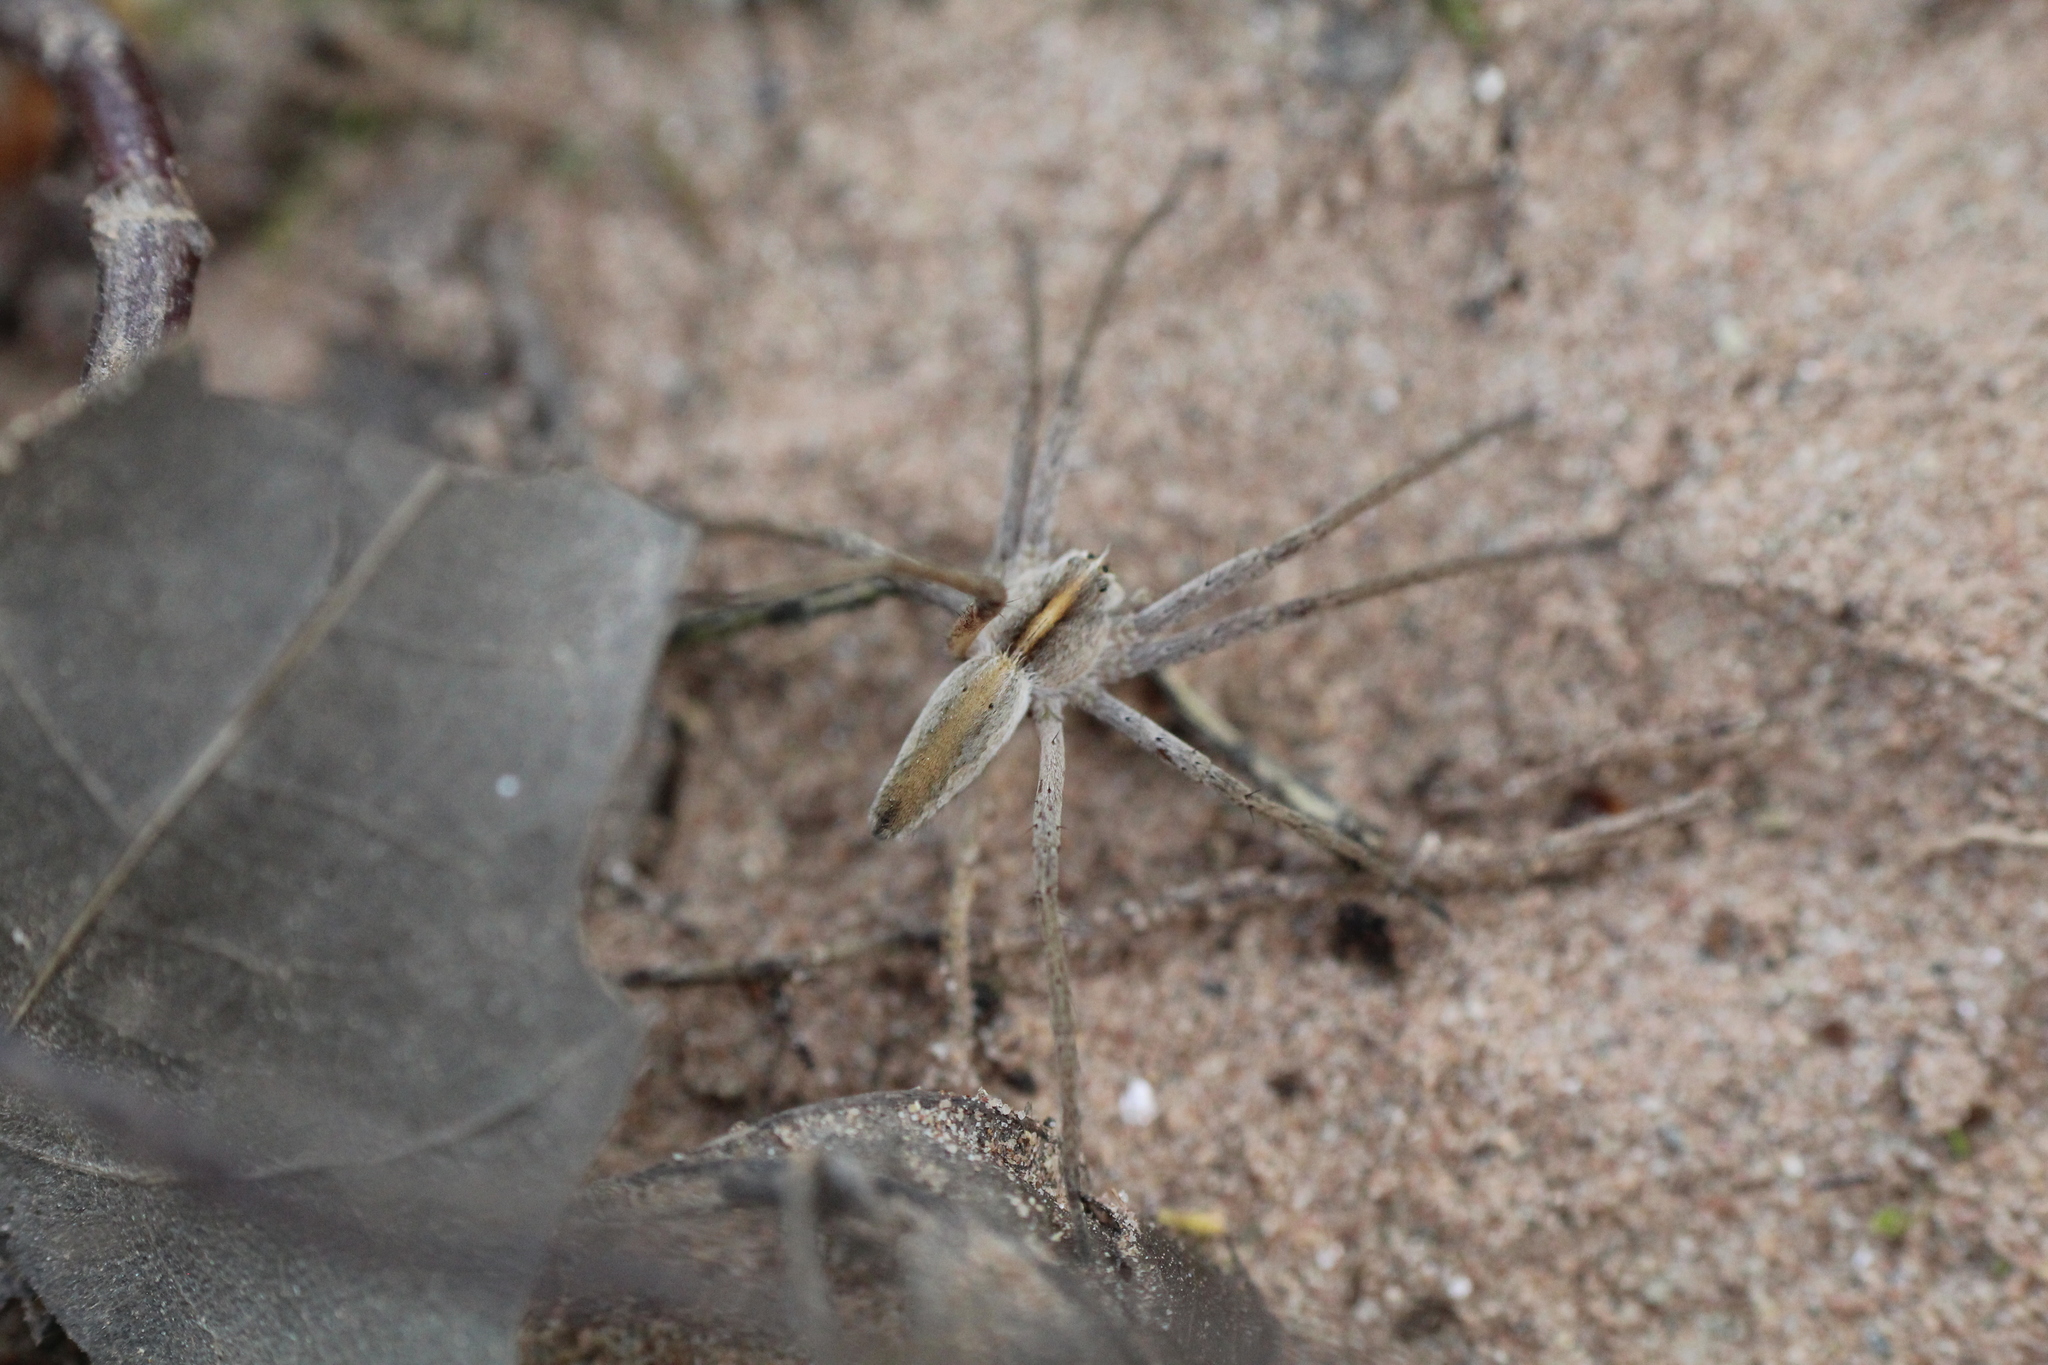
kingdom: Animalia
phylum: Arthropoda
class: Arachnida
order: Araneae
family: Pisauridae
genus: Pisaura
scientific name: Pisaura mirabilis
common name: Tent spider
